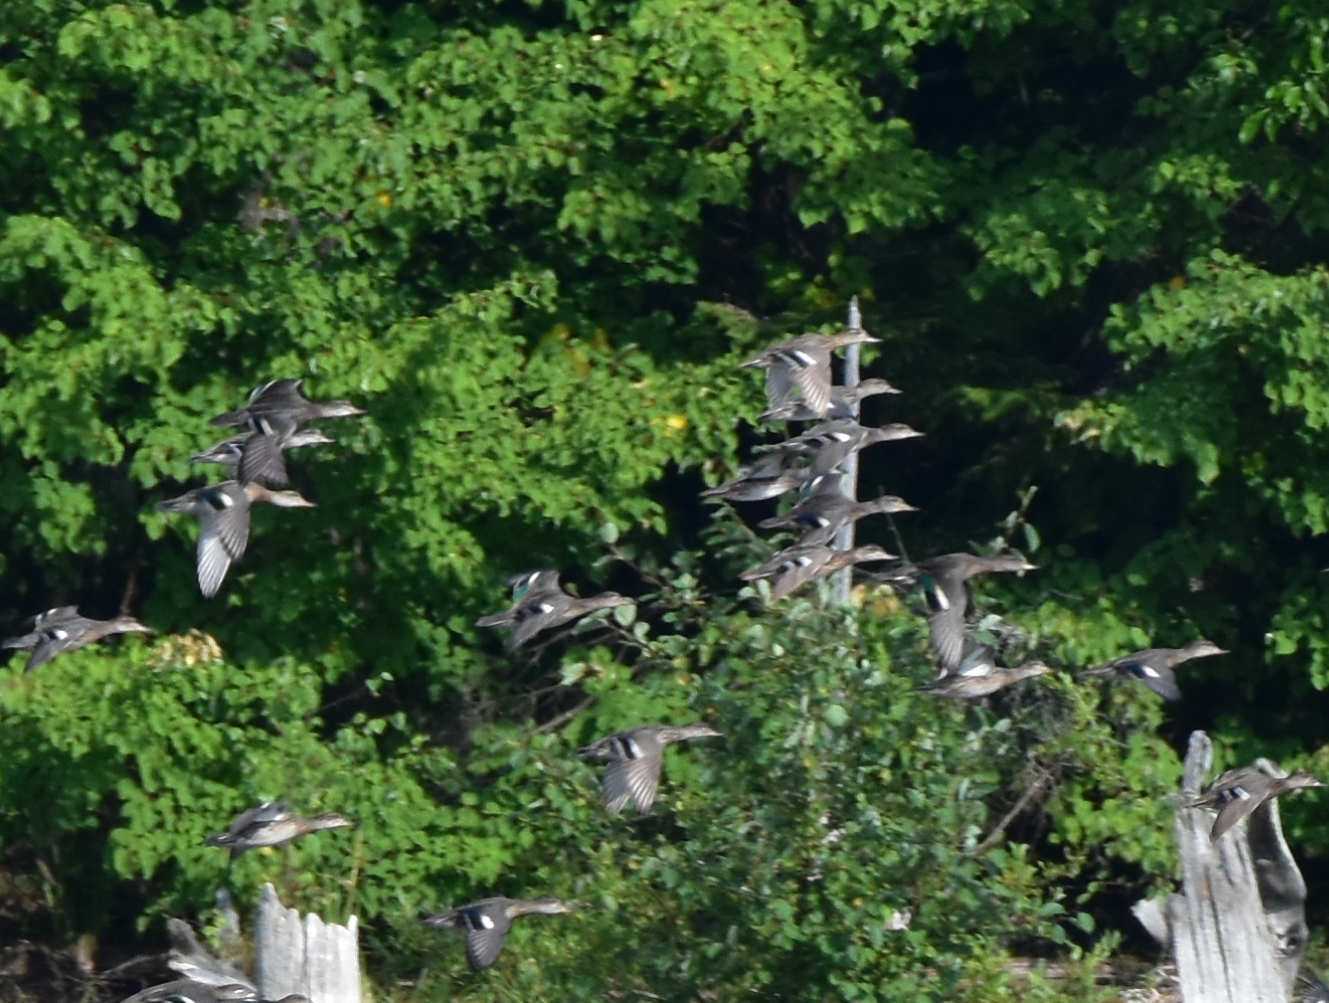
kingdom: Animalia
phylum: Chordata
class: Aves
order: Anseriformes
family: Anatidae
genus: Spatula
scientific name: Spatula querquedula
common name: Garganey
